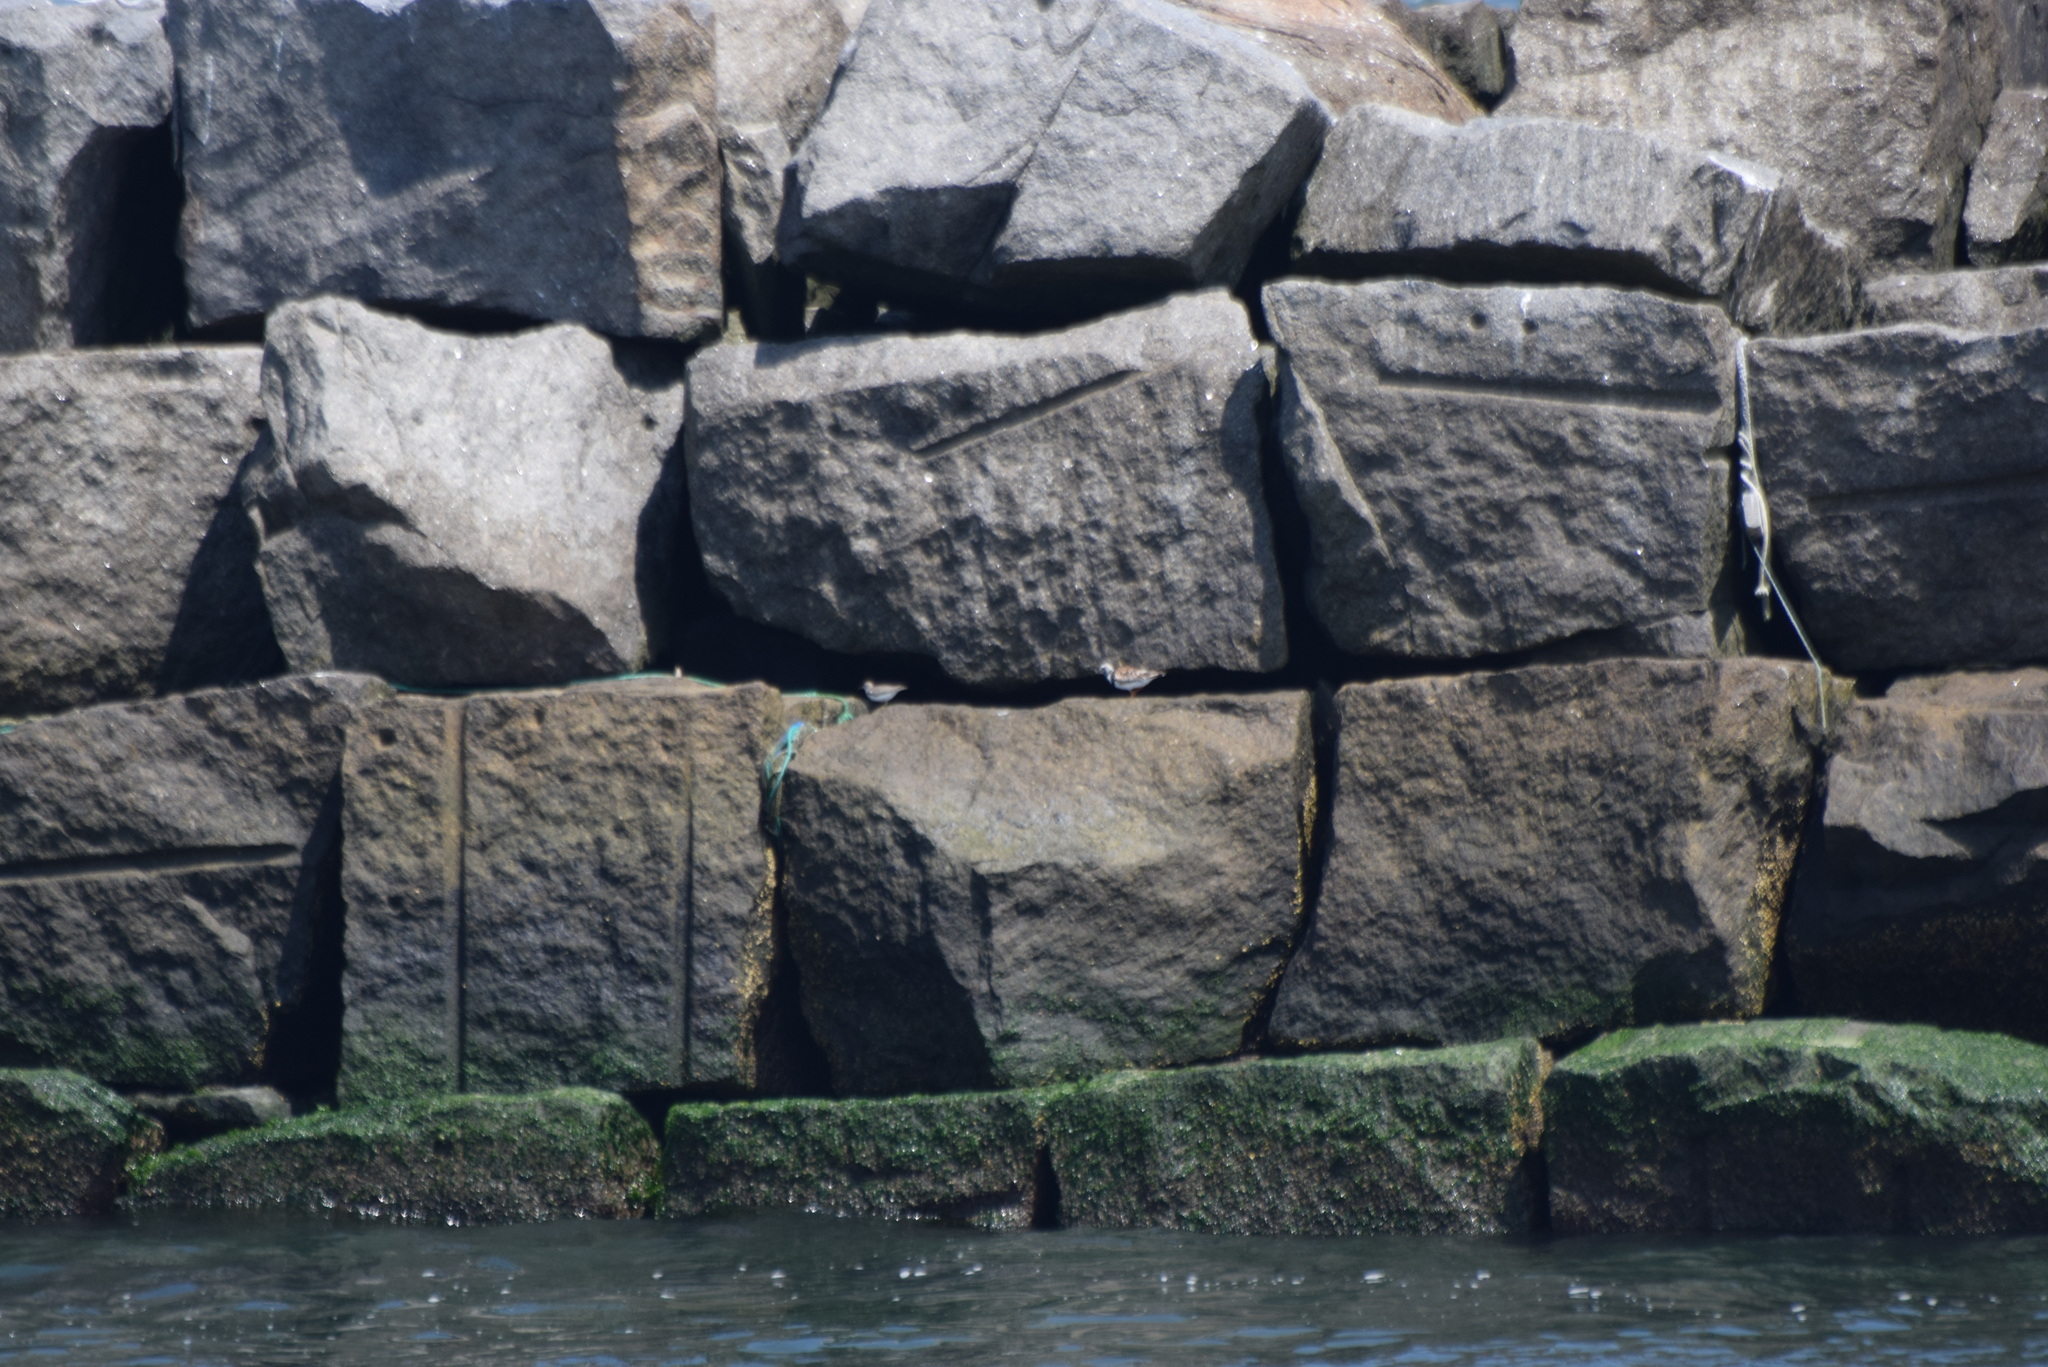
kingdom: Animalia
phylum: Chordata
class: Aves
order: Charadriiformes
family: Scolopacidae
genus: Arenaria
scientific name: Arenaria interpres
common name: Ruddy turnstone
